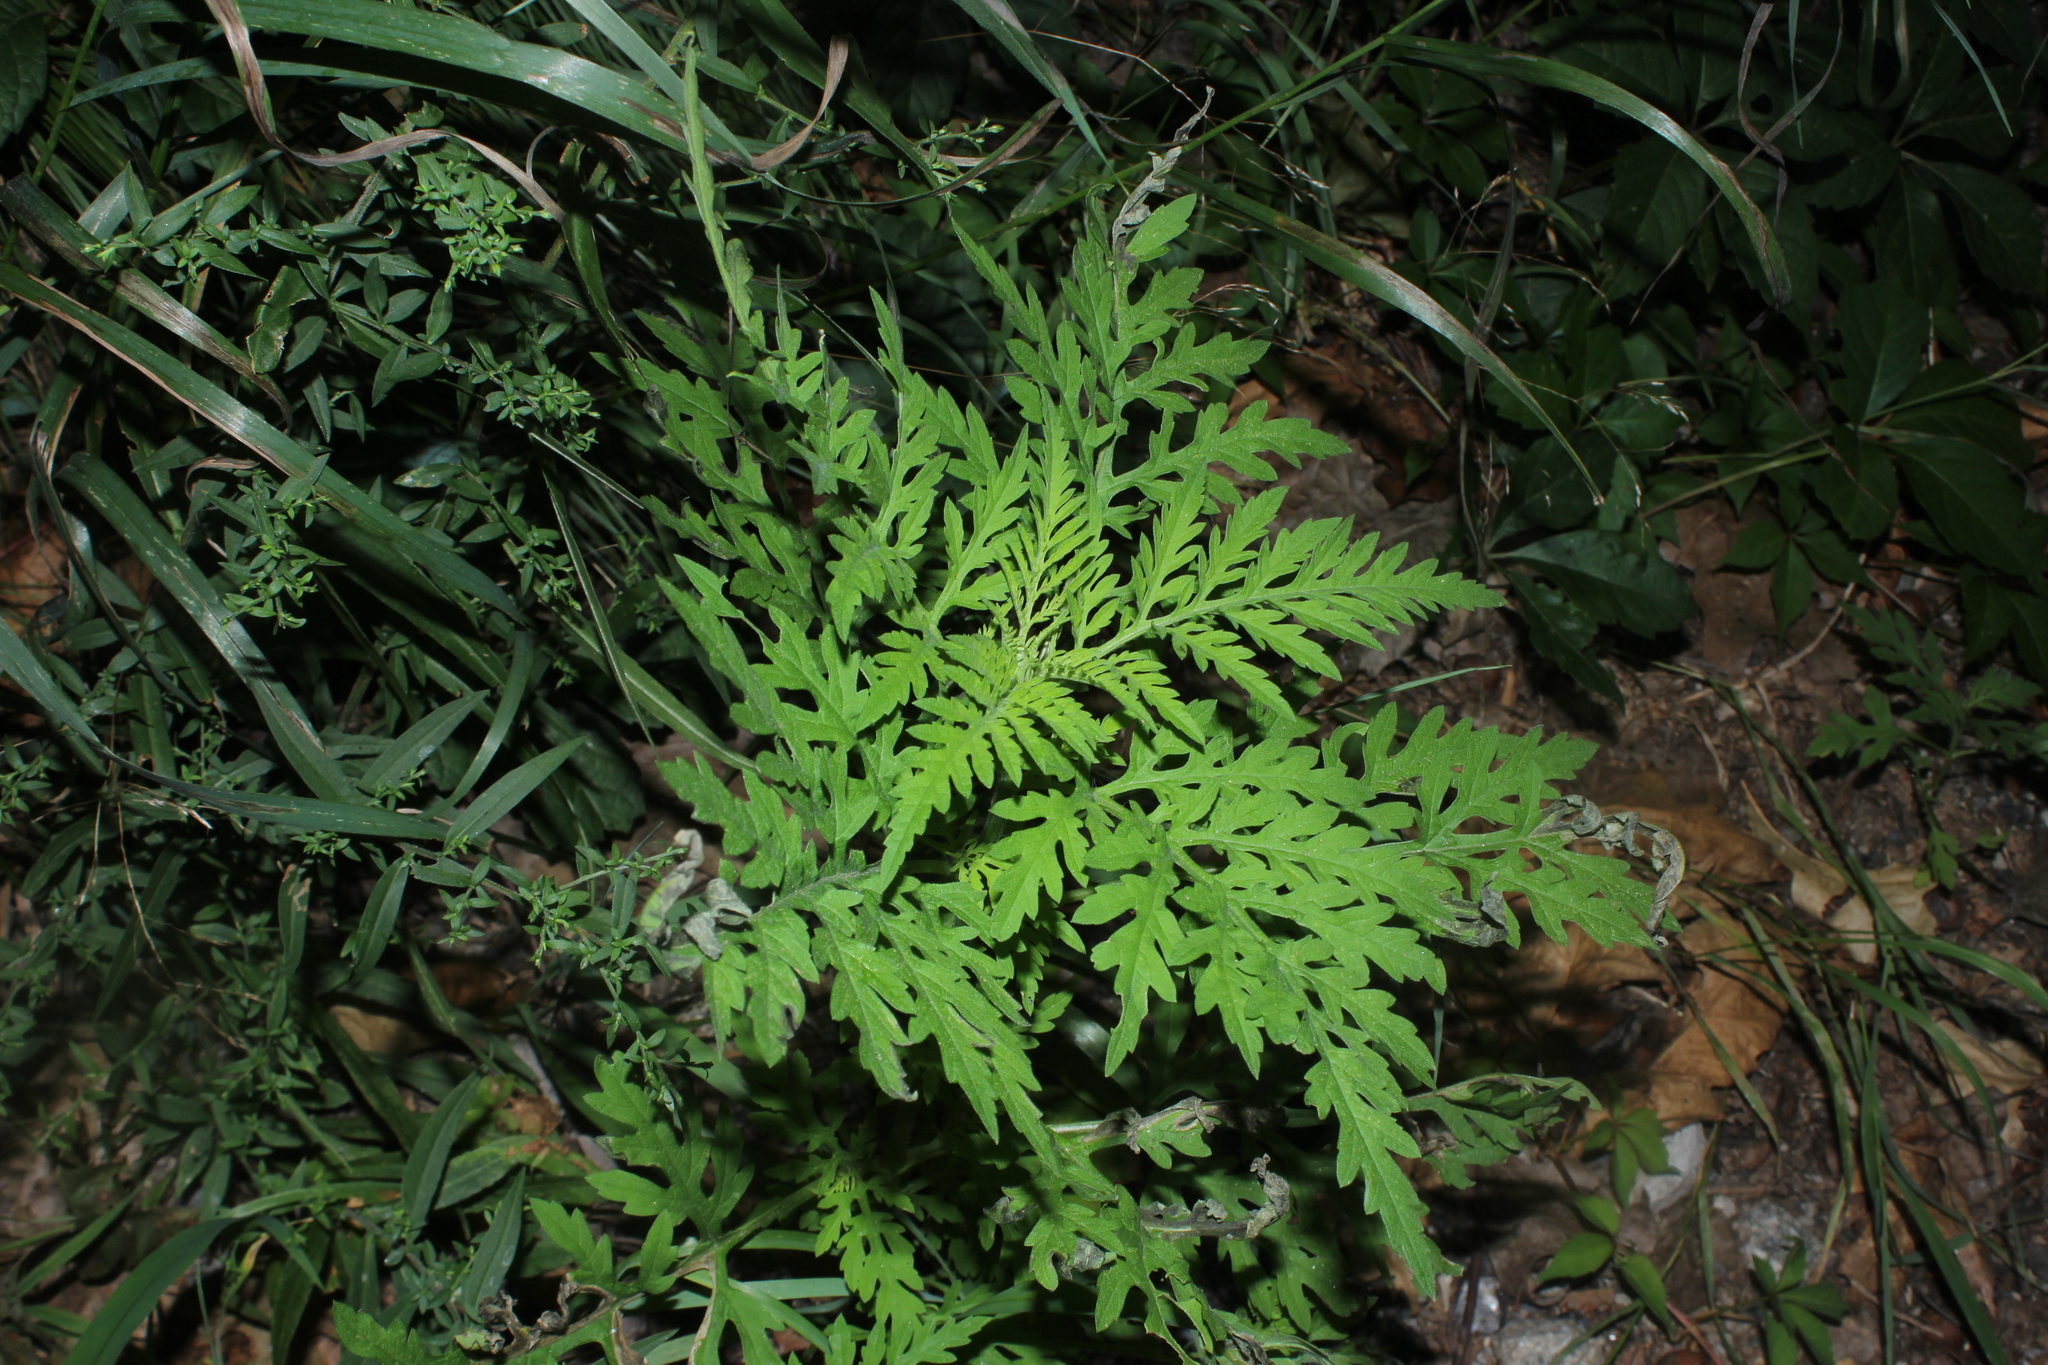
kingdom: Plantae
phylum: Tracheophyta
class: Magnoliopsida
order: Asterales
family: Asteraceae
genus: Ambrosia
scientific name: Ambrosia artemisiifolia
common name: Annual ragweed
